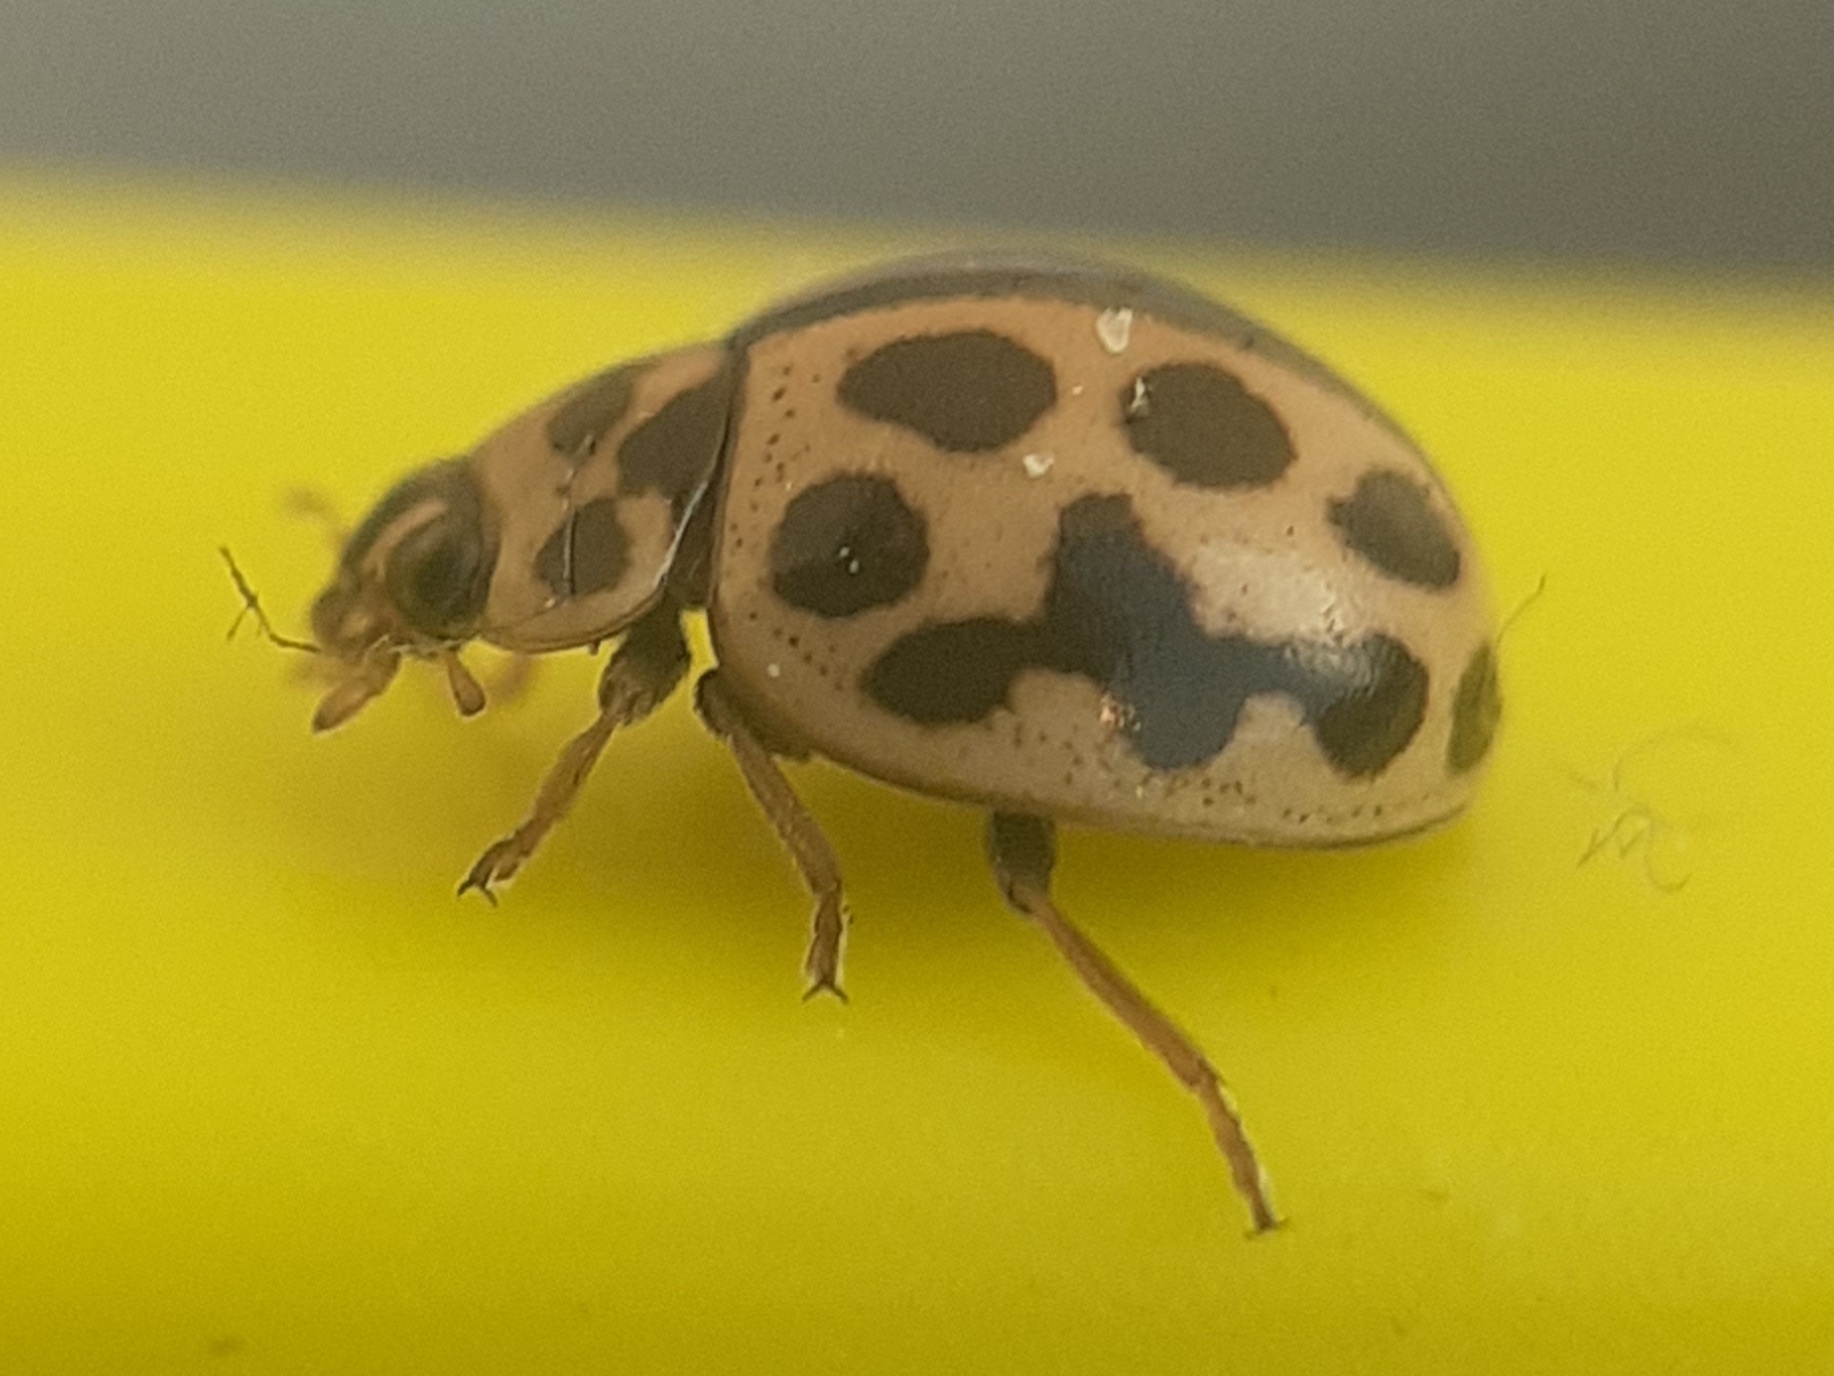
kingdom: Animalia
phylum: Arthropoda
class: Insecta
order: Coleoptera
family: Coccinellidae
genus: Tytthaspis
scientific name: Tytthaspis sedecimpunctata
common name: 16-spot ladybird
